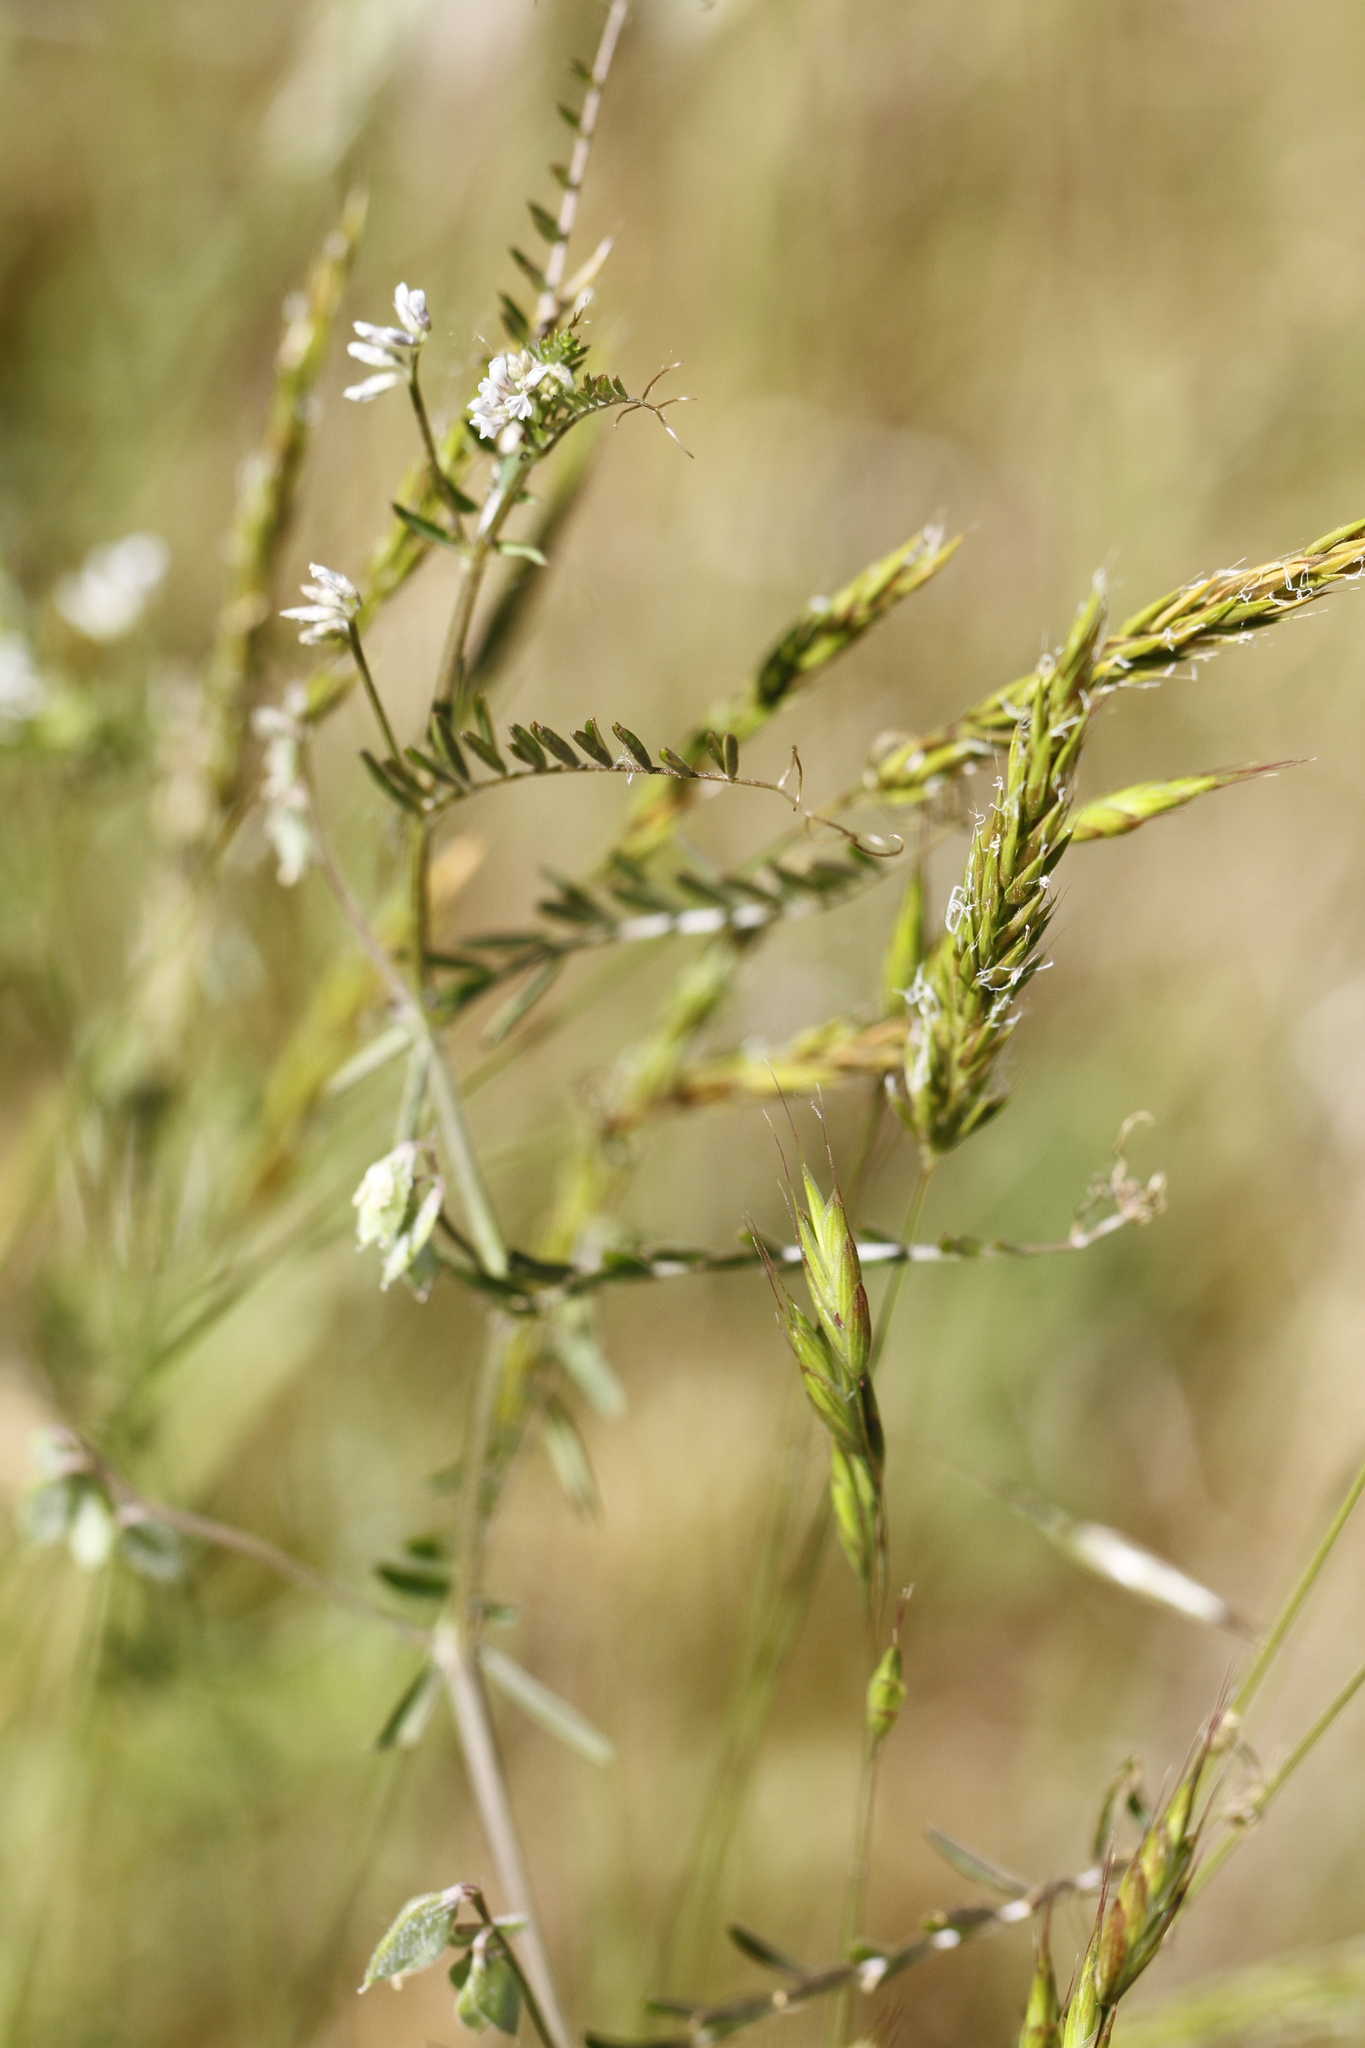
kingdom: Plantae
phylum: Tracheophyta
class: Magnoliopsida
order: Fabales
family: Fabaceae
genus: Vicia
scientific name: Vicia hirsuta
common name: Tiny vetch
